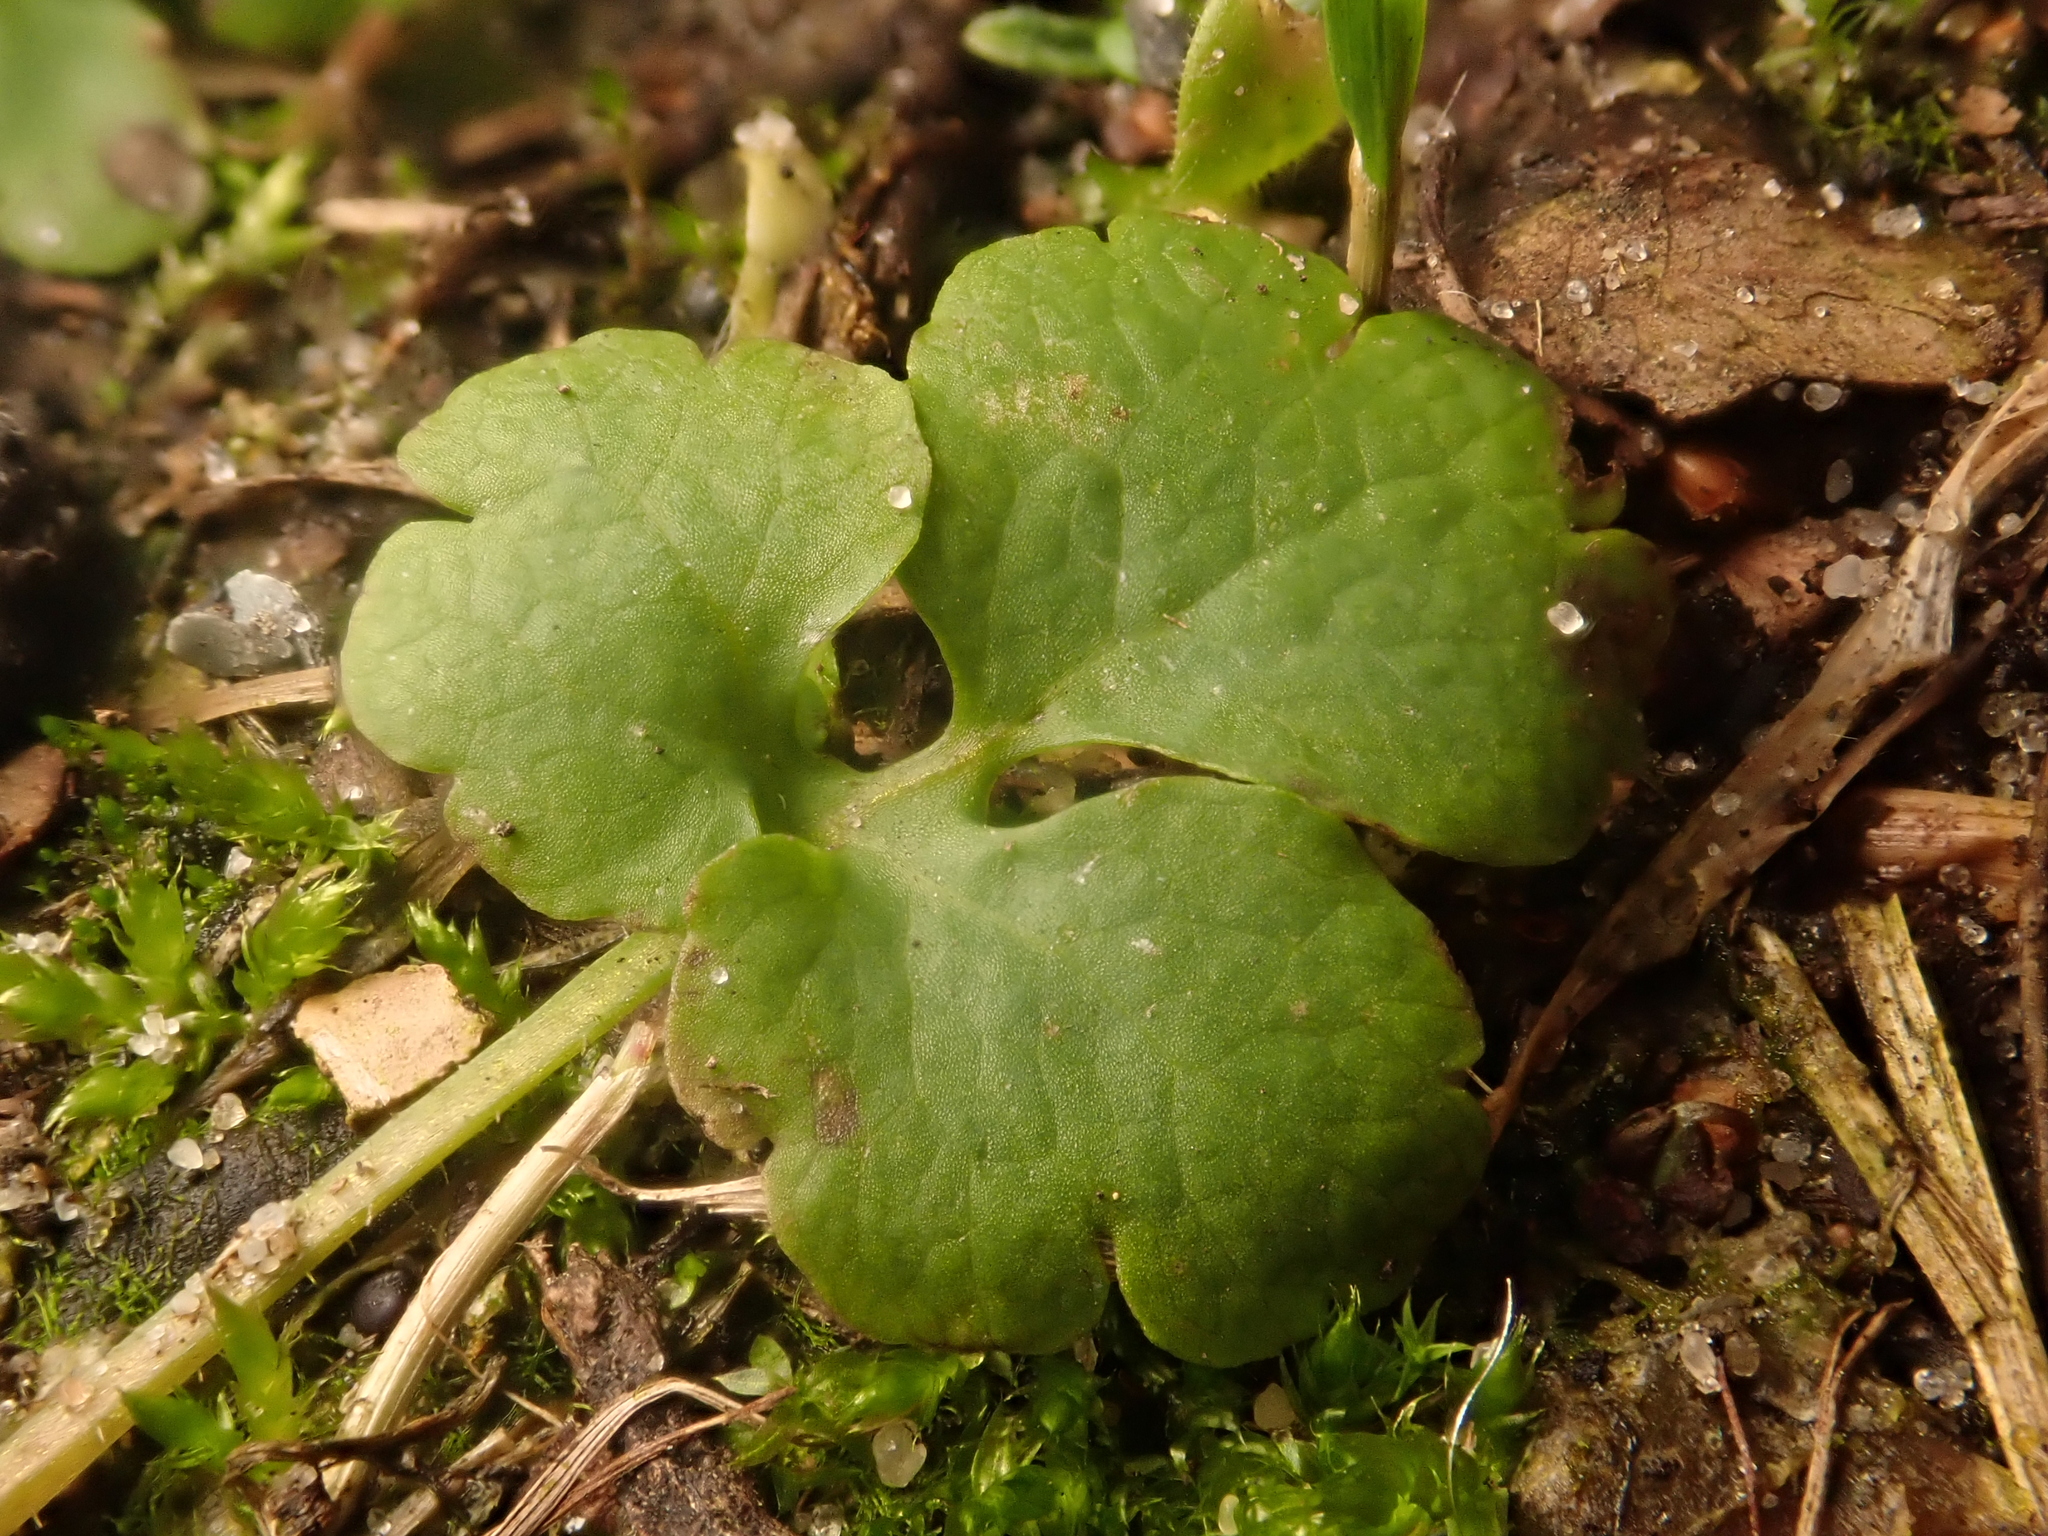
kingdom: Plantae
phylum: Tracheophyta
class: Magnoliopsida
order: Ranunculales
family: Papaveraceae
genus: Chelidonium
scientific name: Chelidonium majus
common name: Greater celandine
